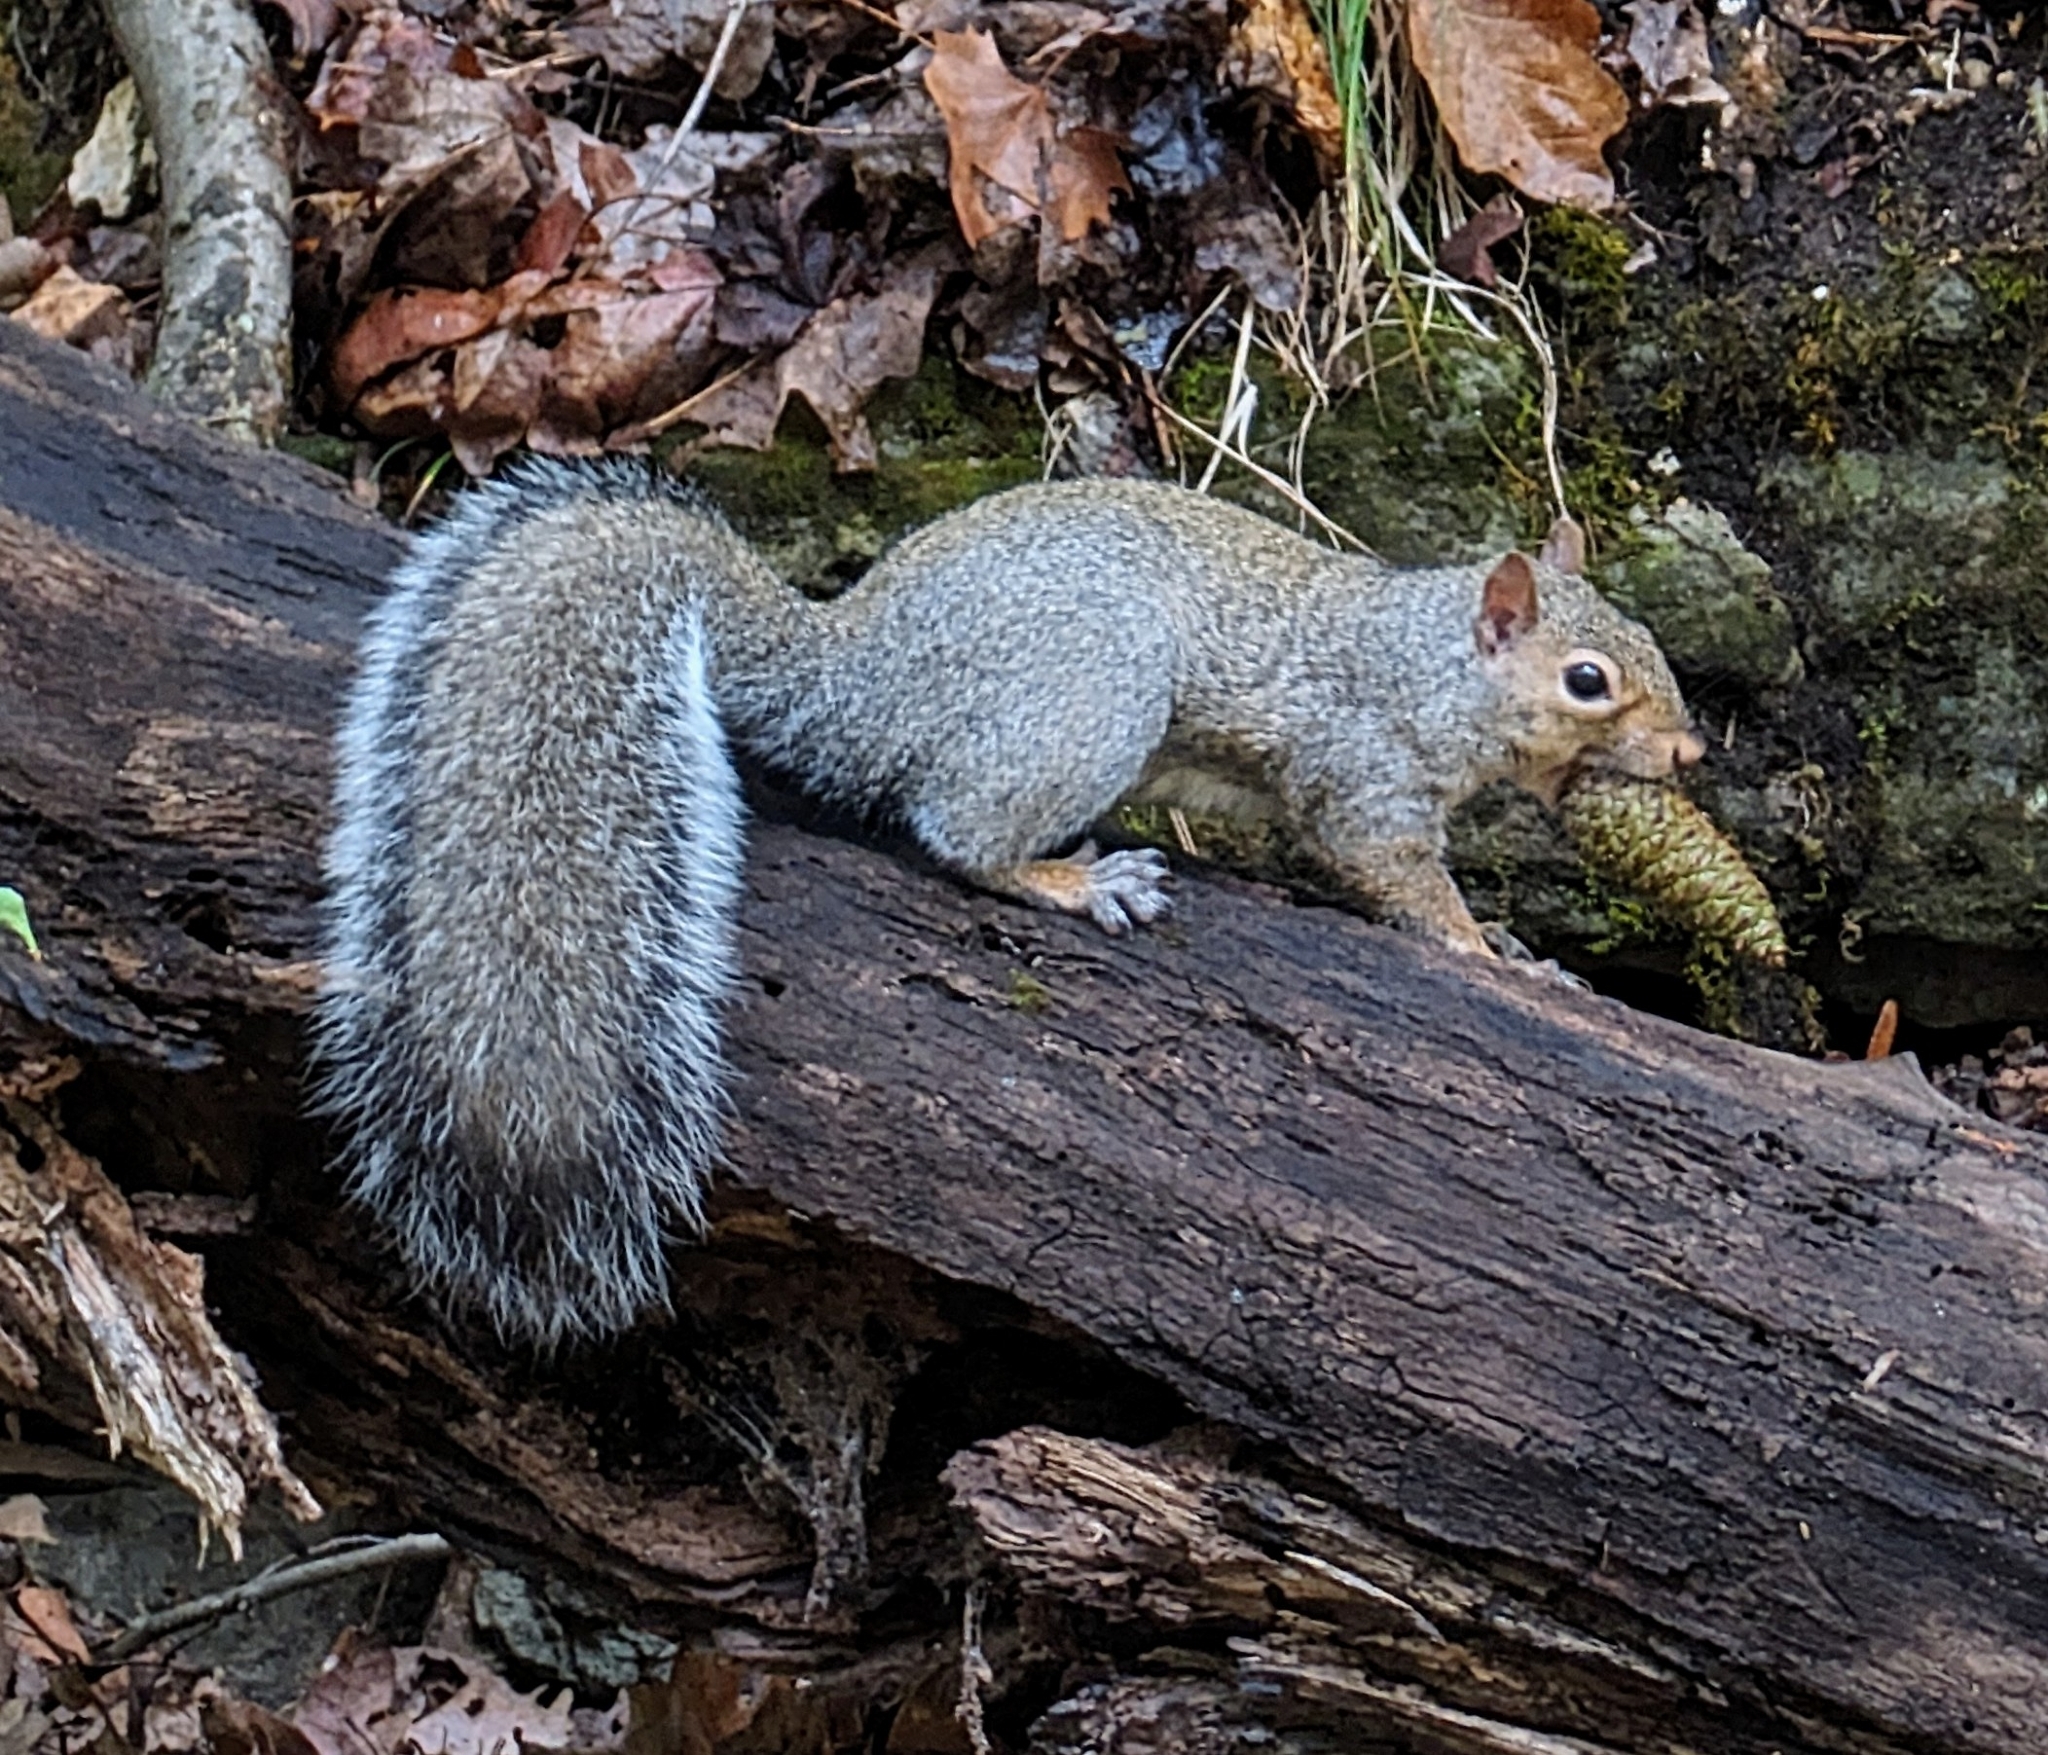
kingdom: Animalia
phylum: Chordata
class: Mammalia
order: Rodentia
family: Sciuridae
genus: Sciurus
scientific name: Sciurus carolinensis
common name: Eastern gray squirrel
